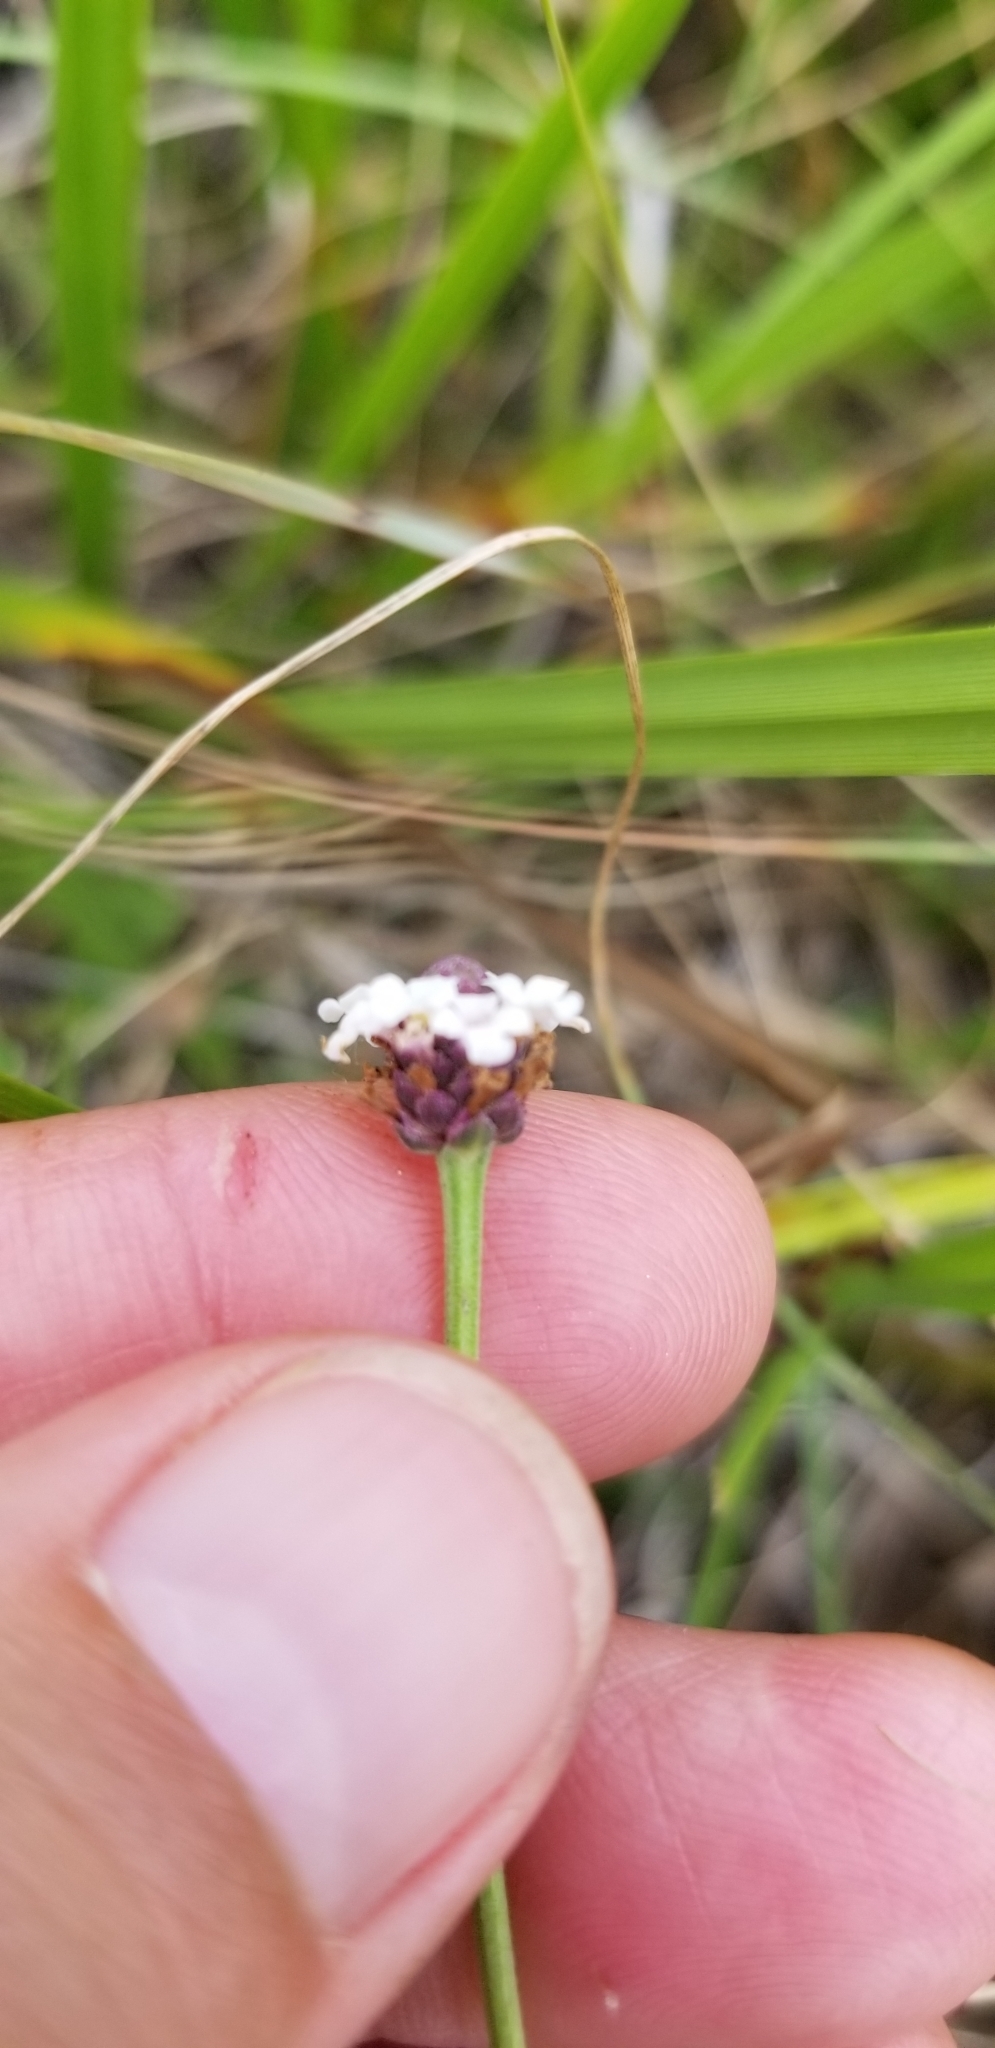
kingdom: Plantae
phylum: Tracheophyta
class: Magnoliopsida
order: Lamiales
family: Verbenaceae
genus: Phyla
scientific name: Phyla nodiflora
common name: Frogfruit
